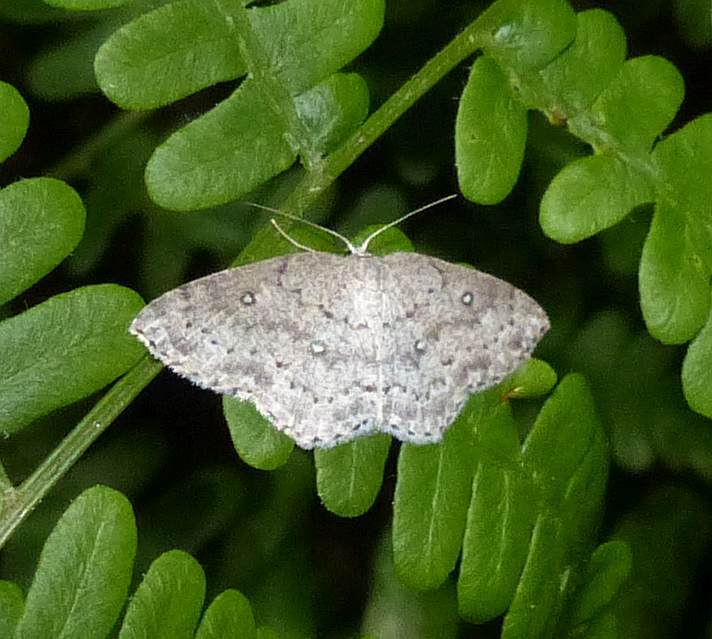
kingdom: Animalia
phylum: Arthropoda
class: Insecta
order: Lepidoptera
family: Geometridae
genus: Cyclophora
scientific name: Cyclophora pendulinaria
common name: Sweet fern geometer
